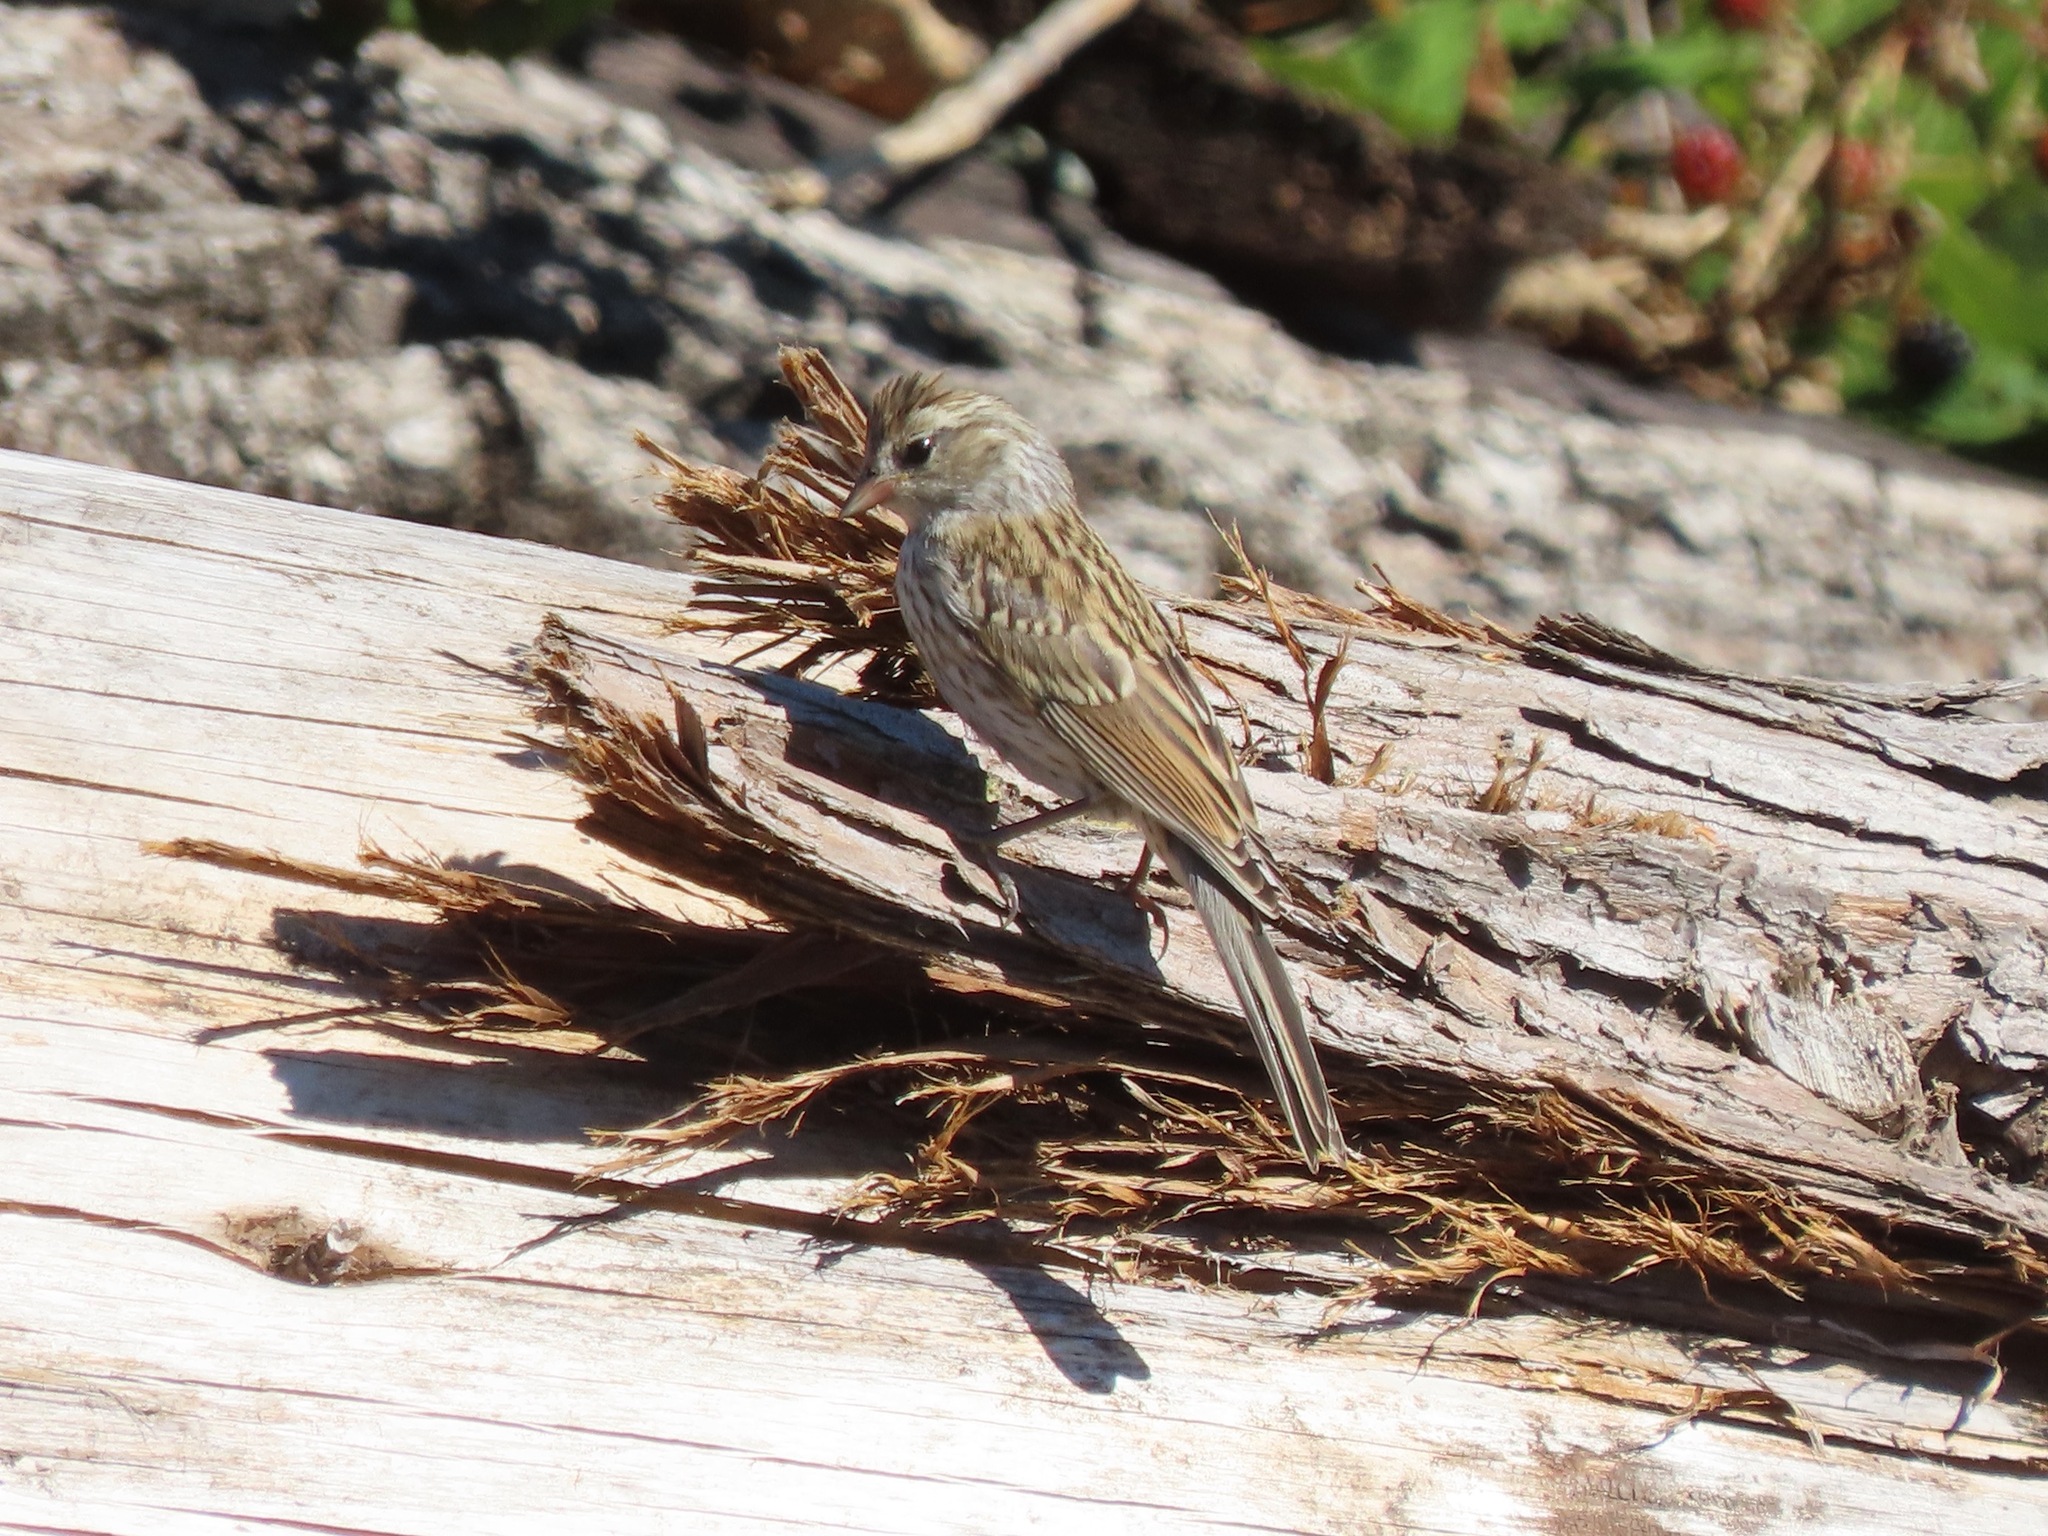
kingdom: Animalia
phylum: Chordata
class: Aves
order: Passeriformes
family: Passerellidae
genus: Spizella
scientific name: Spizella passerina
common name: Chipping sparrow
